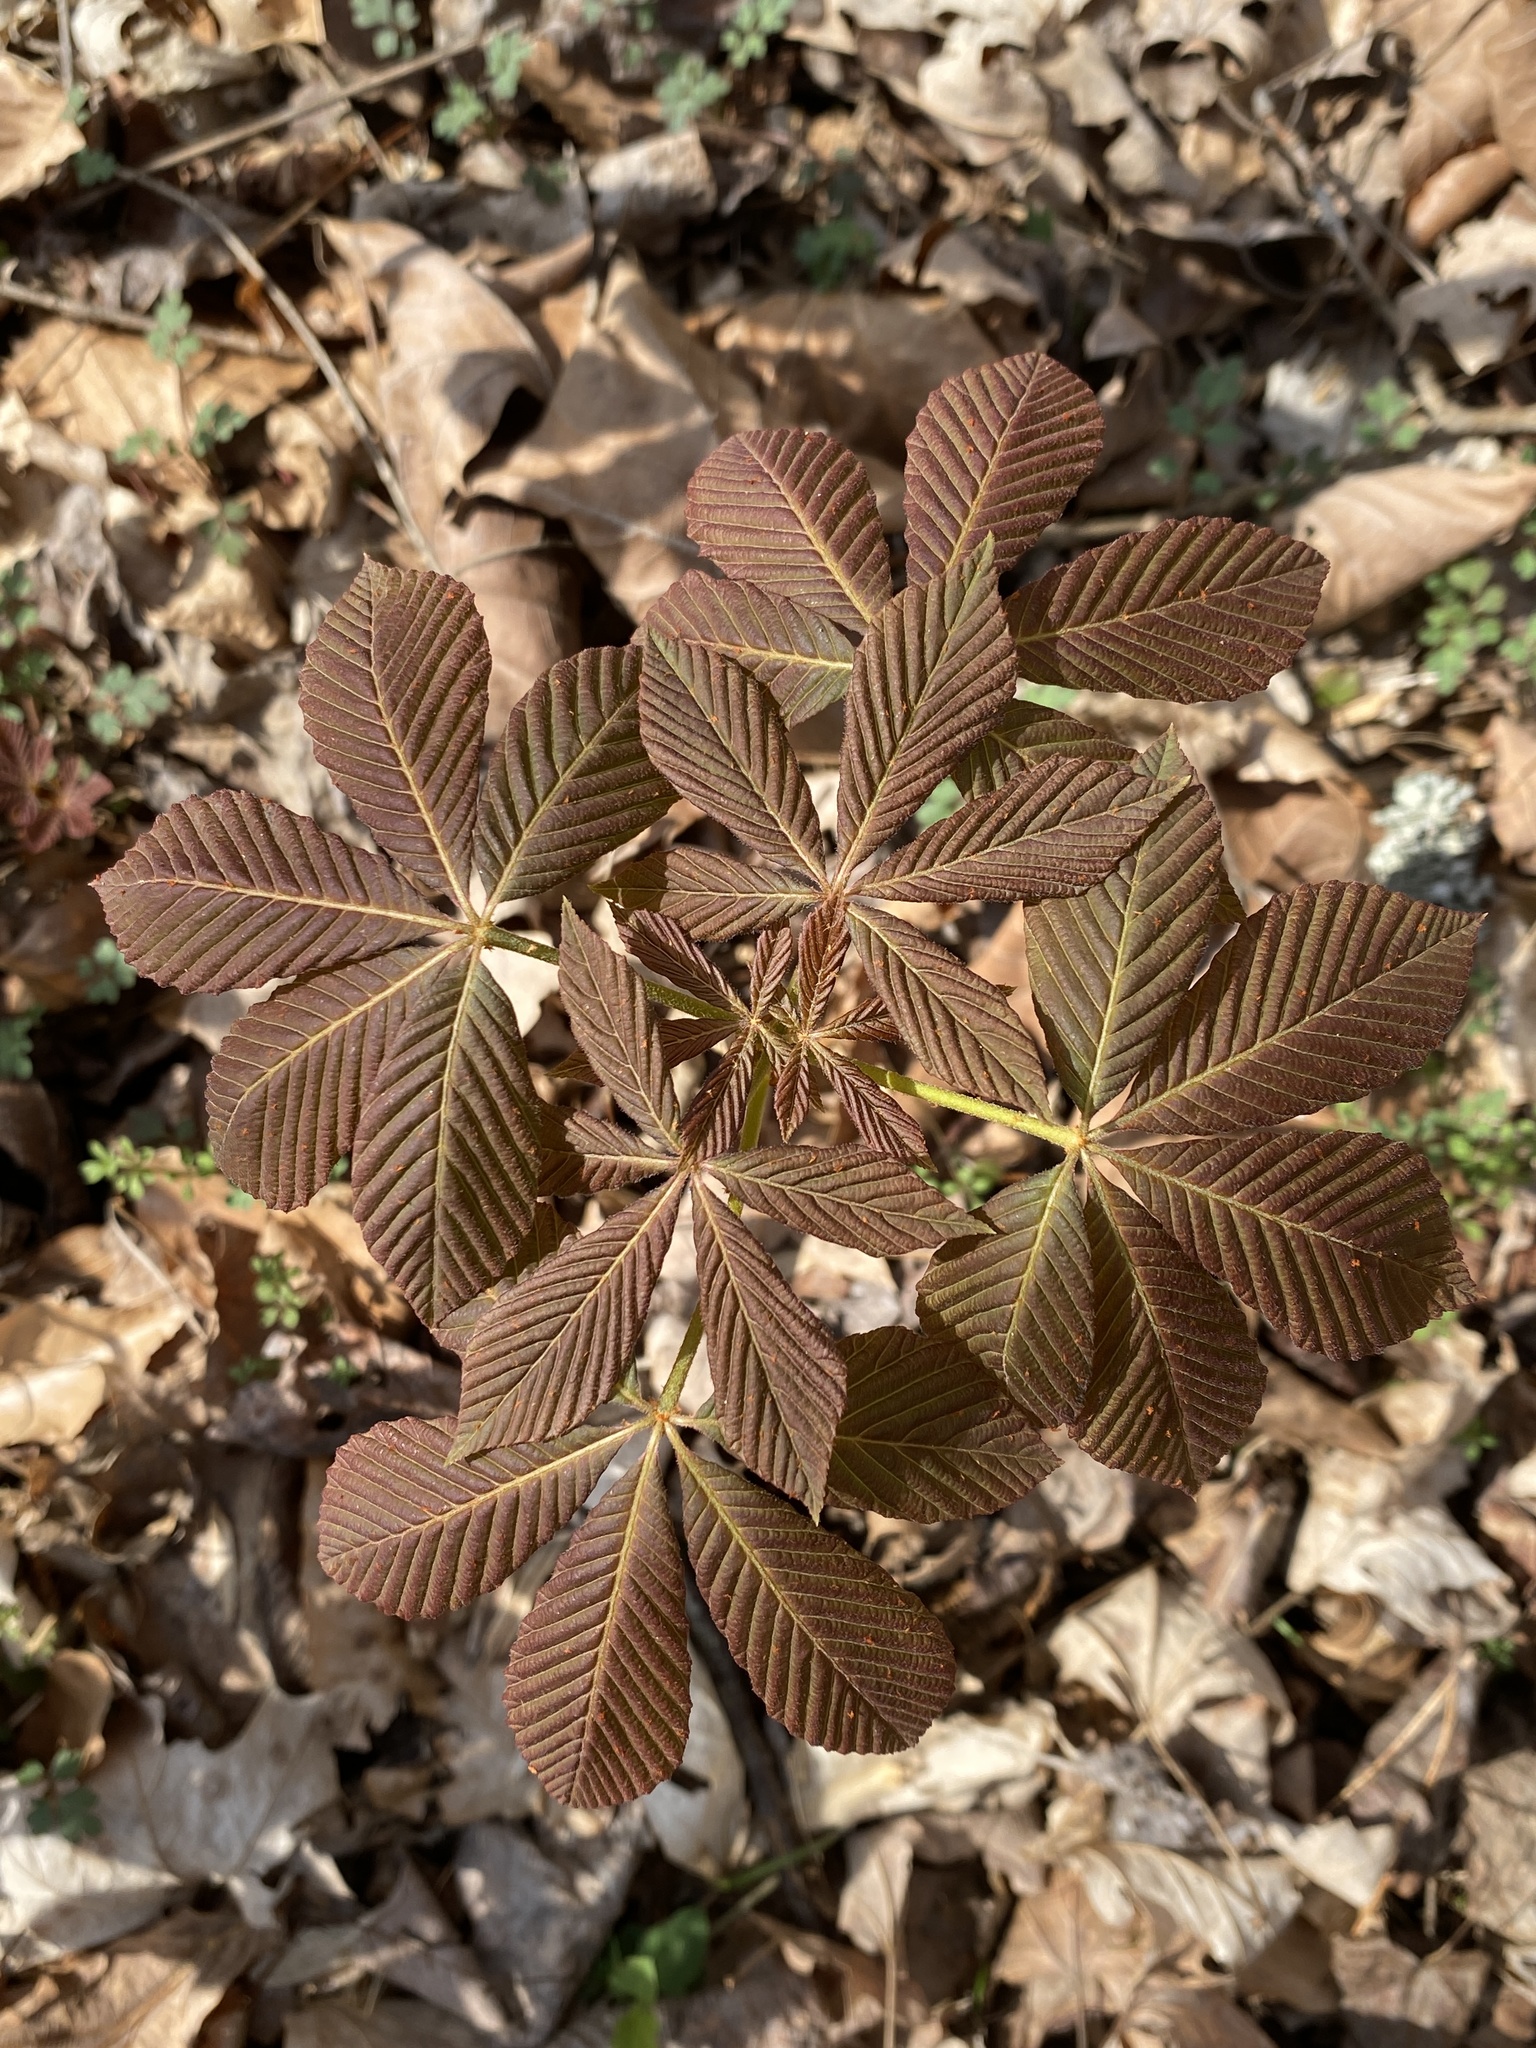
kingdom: Plantae
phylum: Tracheophyta
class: Magnoliopsida
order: Sapindales
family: Sapindaceae
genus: Aesculus
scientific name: Aesculus sylvatica
